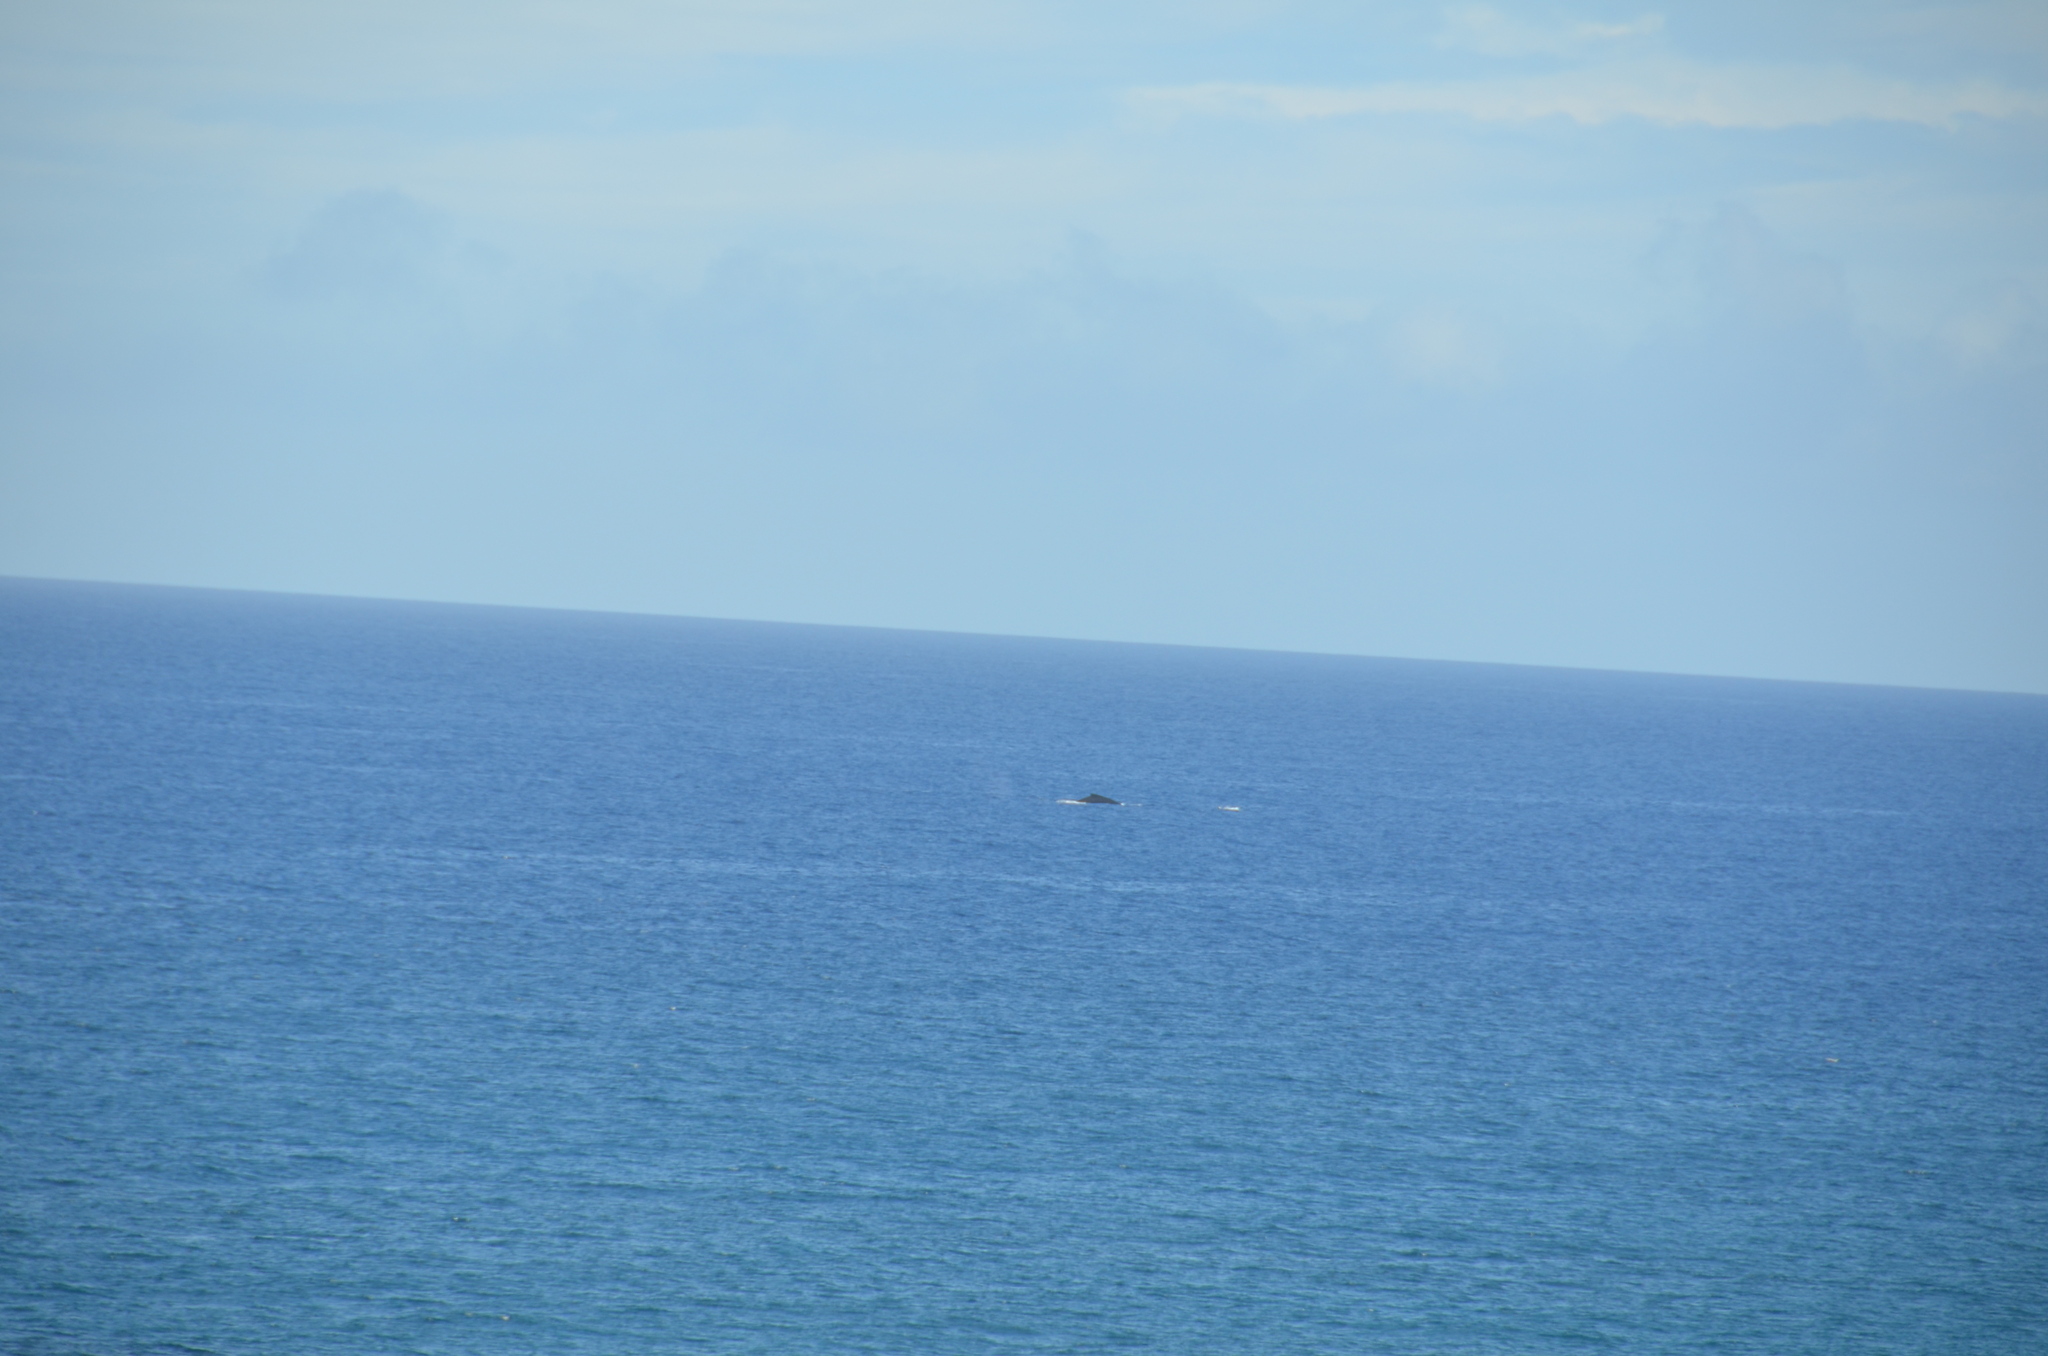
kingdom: Animalia
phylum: Chordata
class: Mammalia
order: Cetacea
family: Balaenopteridae
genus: Megaptera
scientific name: Megaptera novaeangliae
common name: Humpback whale
